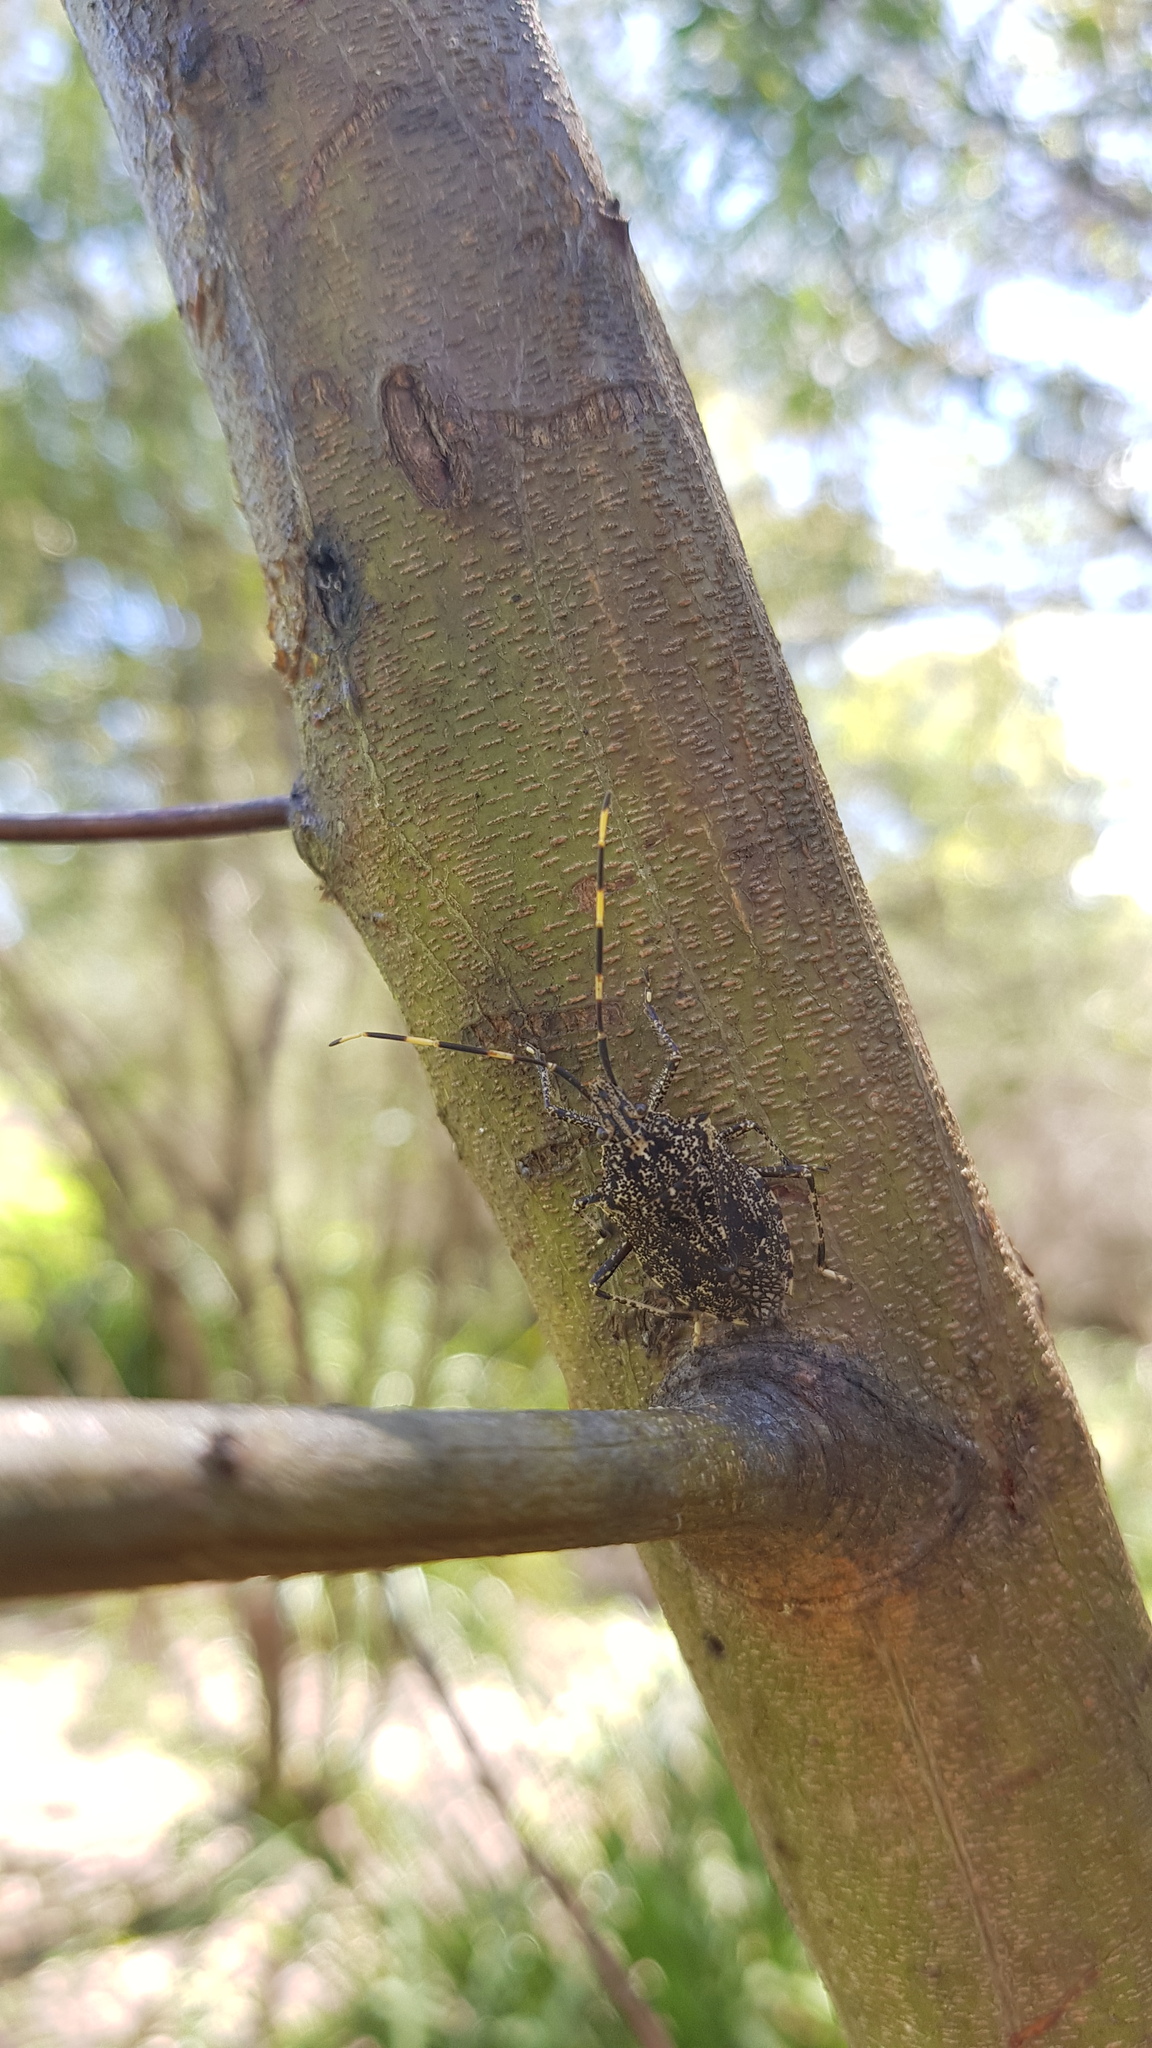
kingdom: Animalia
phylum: Arthropoda
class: Insecta
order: Hemiptera
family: Pentatomidae
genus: Alcaeus
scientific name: Alcaeus
